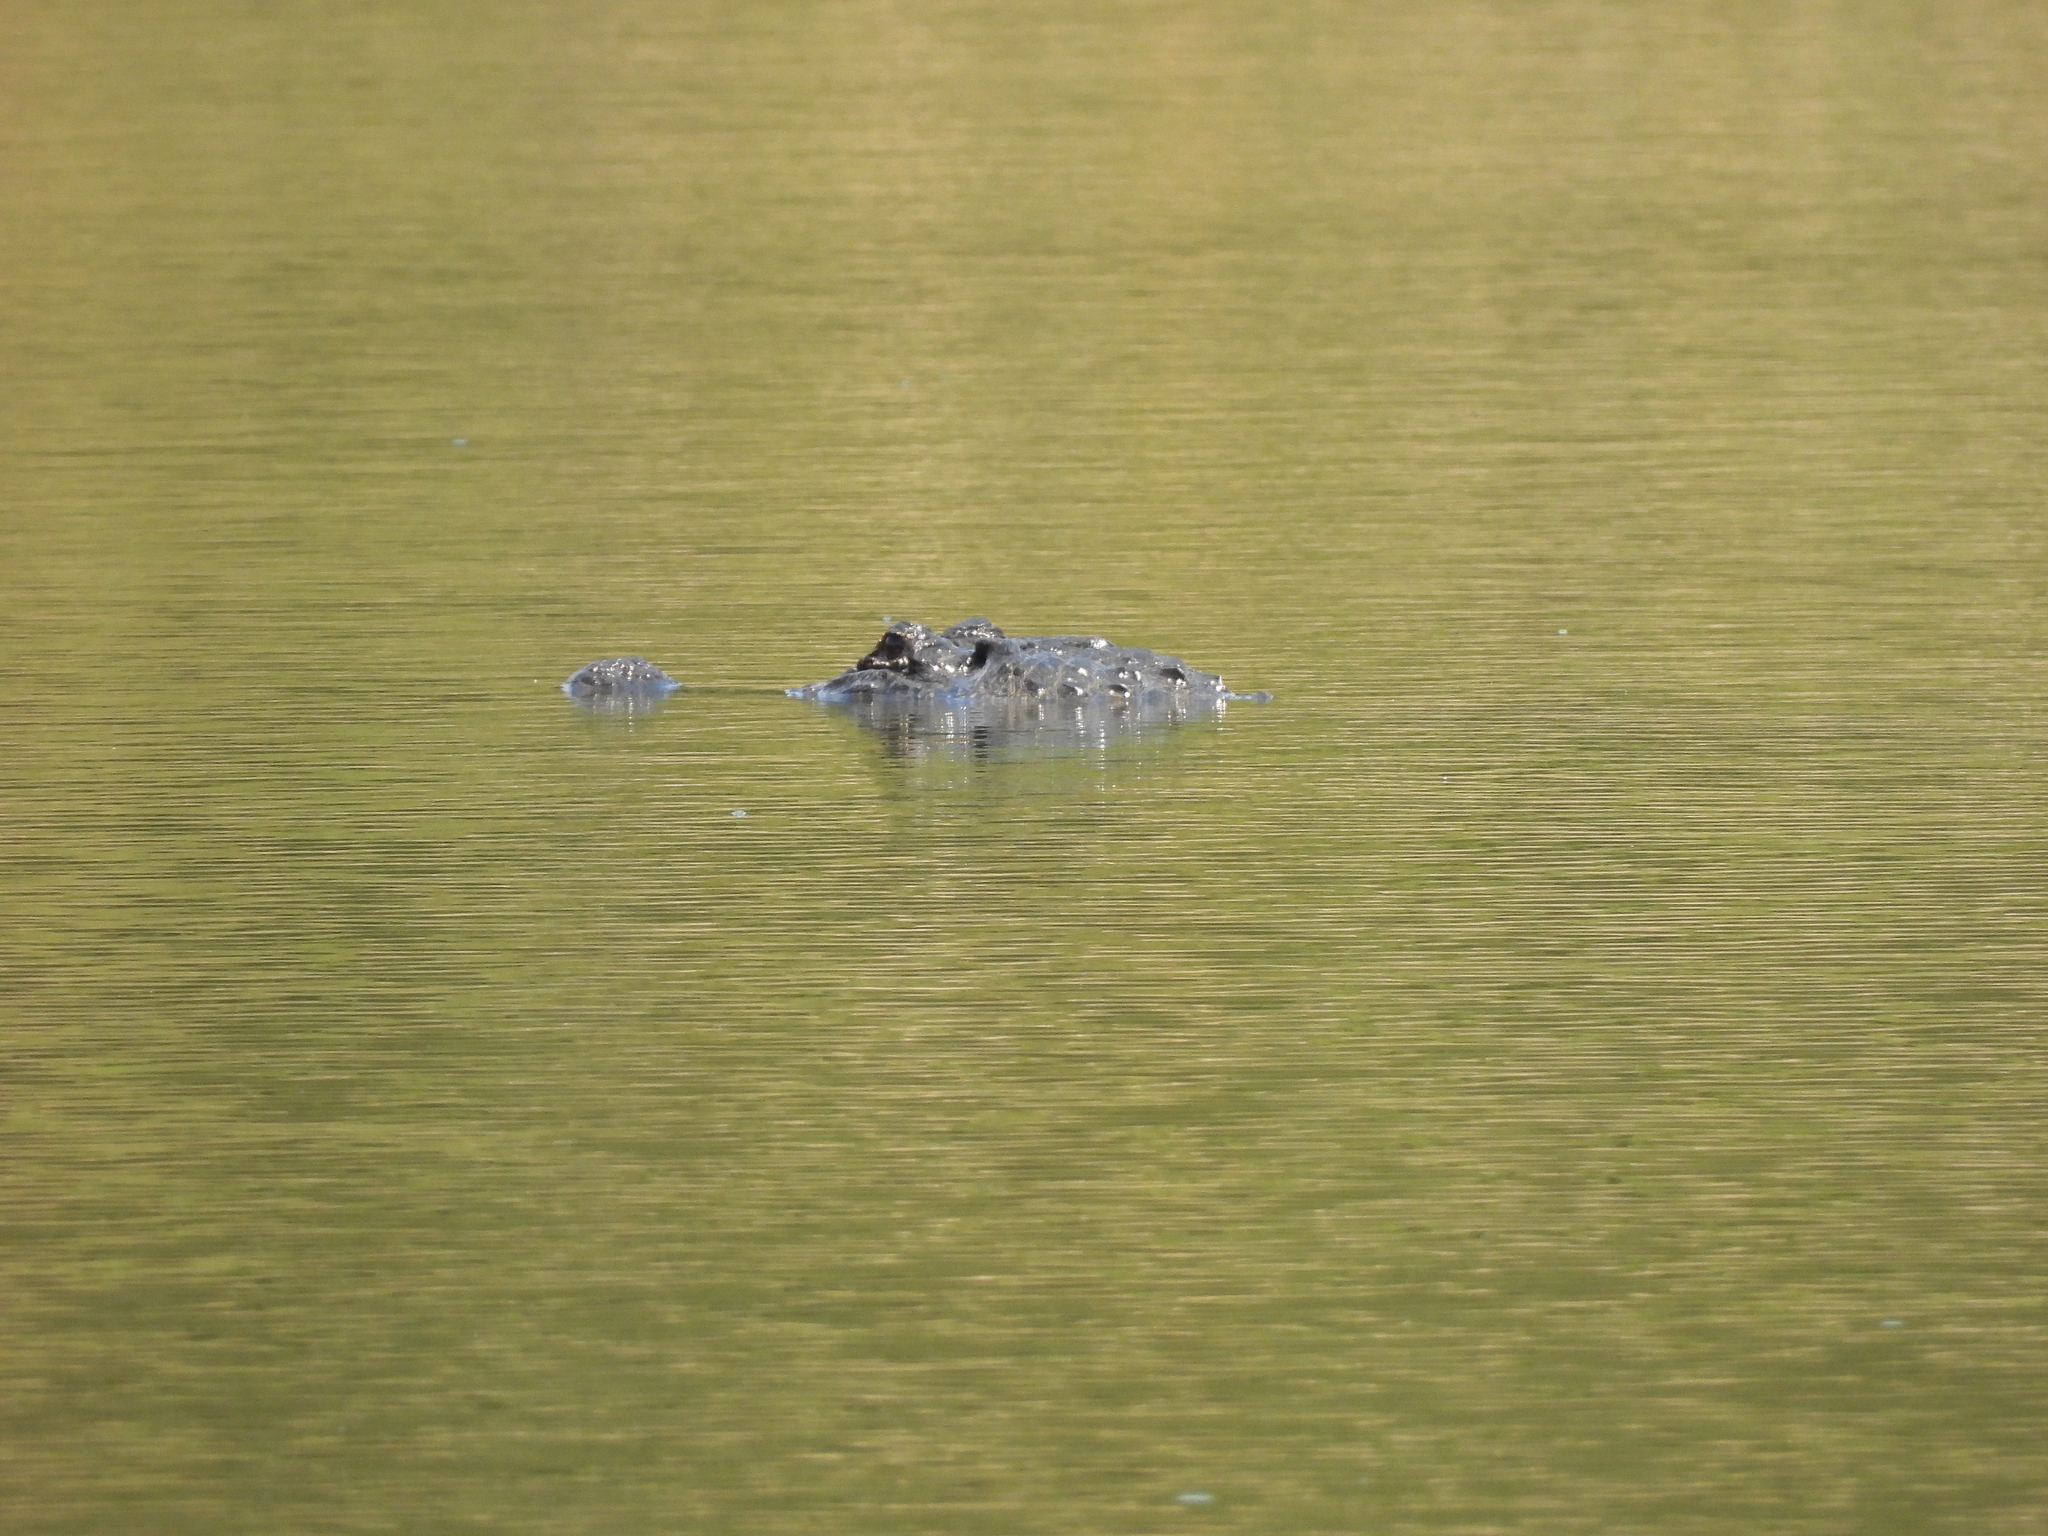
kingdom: Animalia
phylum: Chordata
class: Crocodylia
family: Alligatoridae
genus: Alligator
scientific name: Alligator mississippiensis
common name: American alligator
